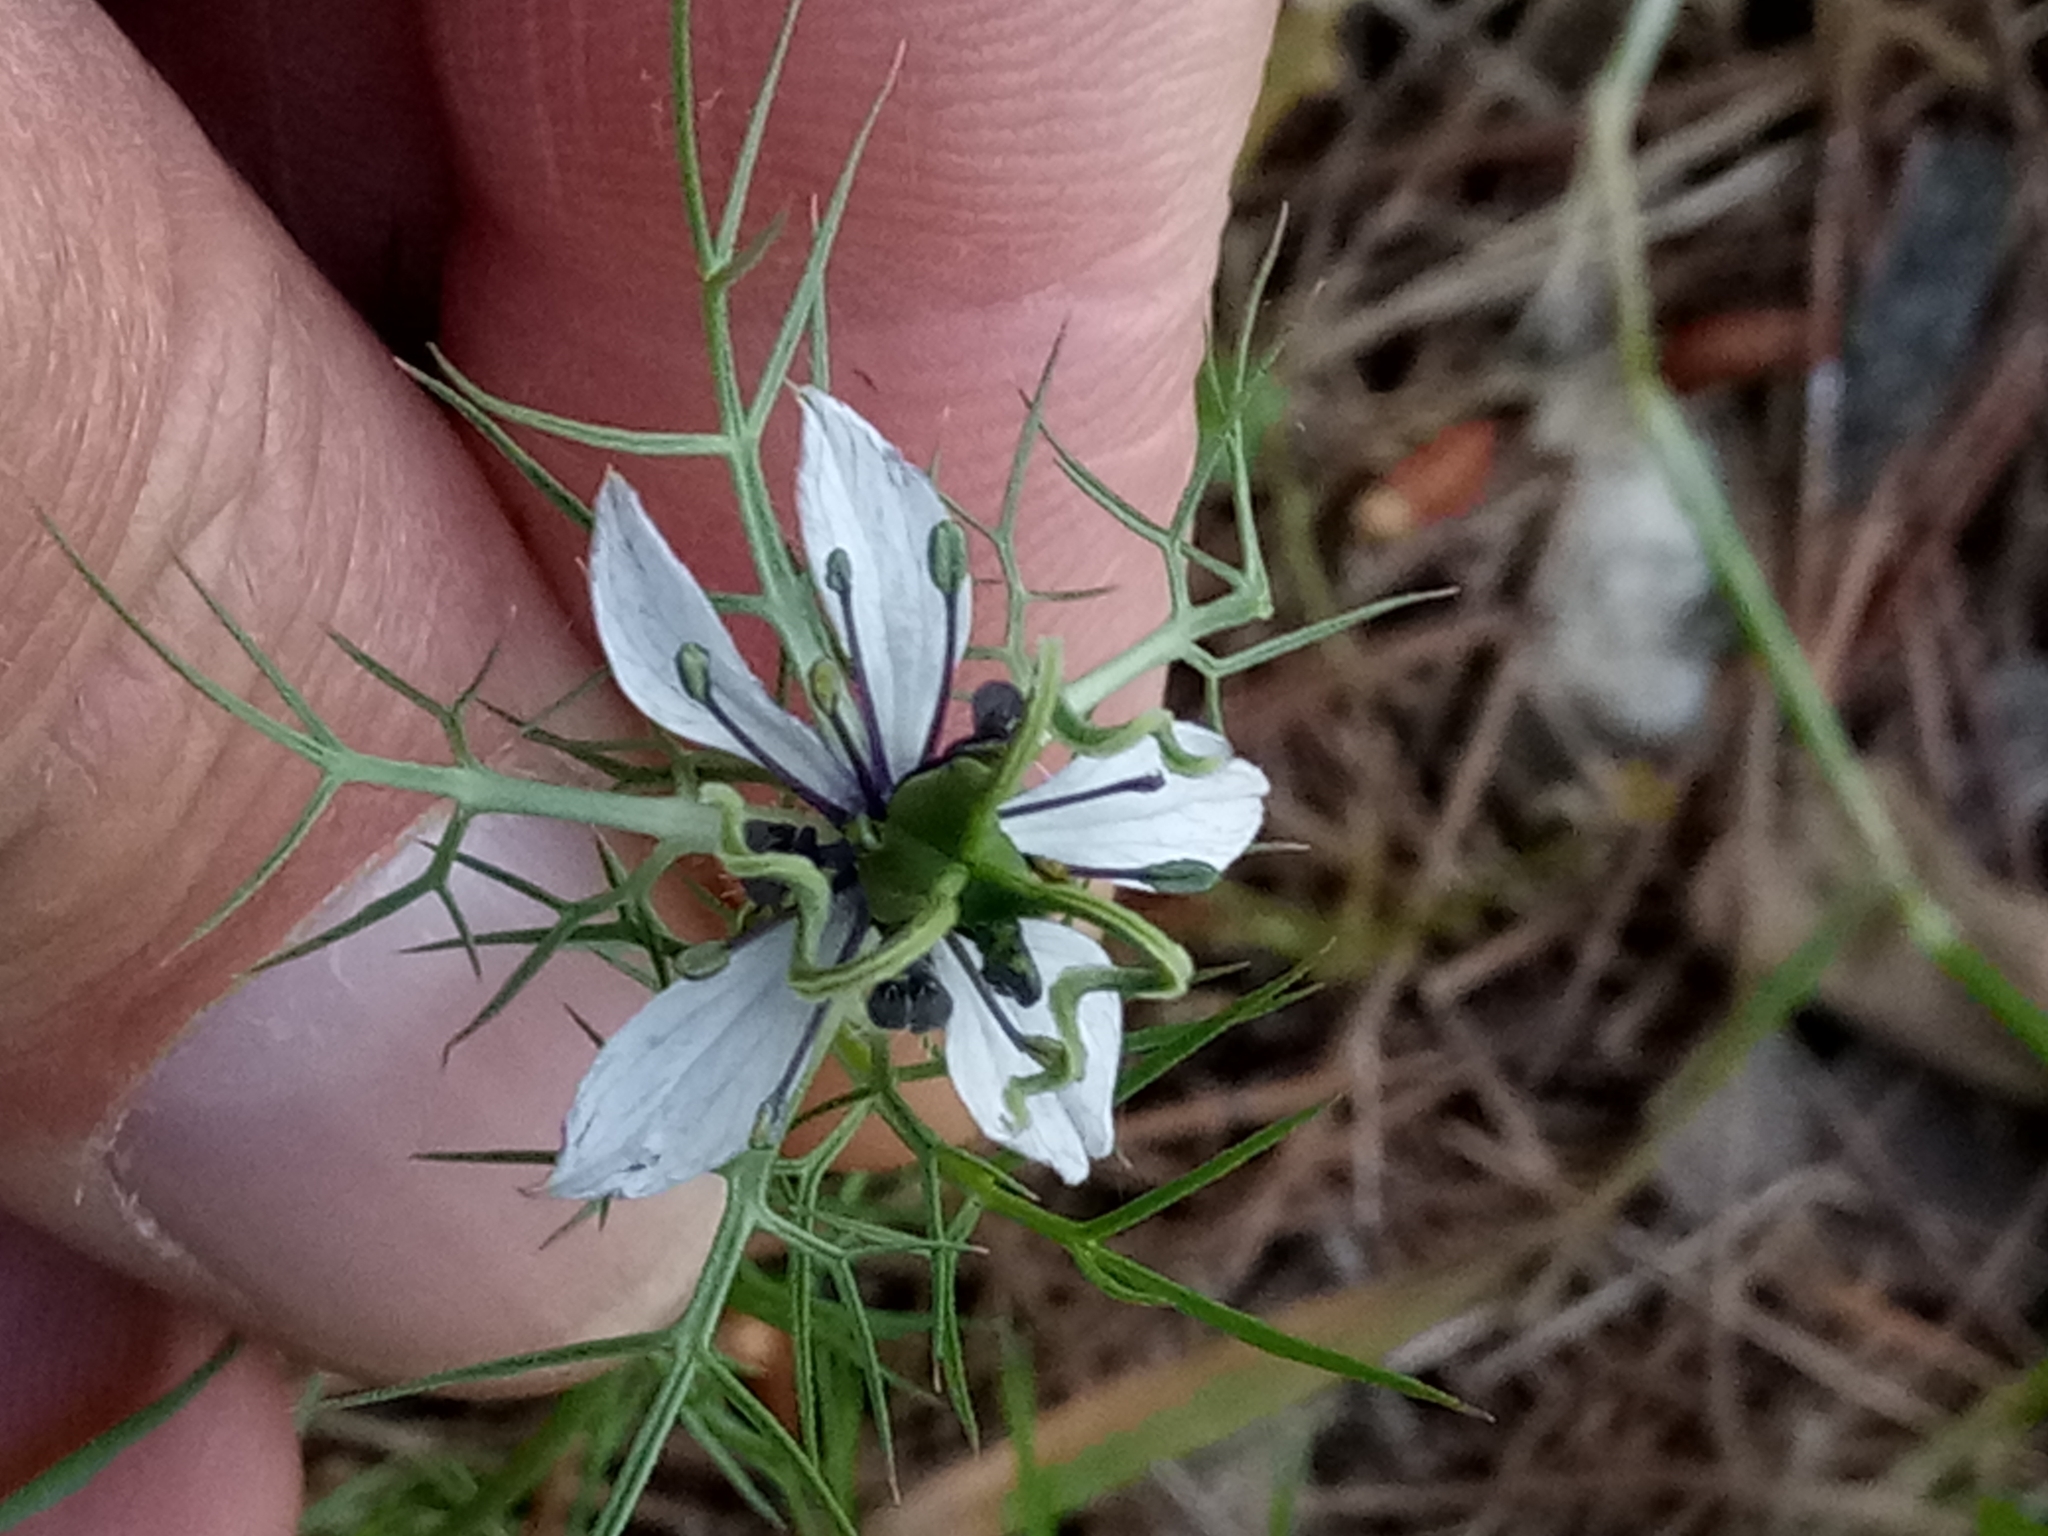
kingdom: Plantae
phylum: Tracheophyta
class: Magnoliopsida
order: Ranunculales
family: Ranunculaceae
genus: Nigella
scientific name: Nigella damascena
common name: Love-in-a-mist
